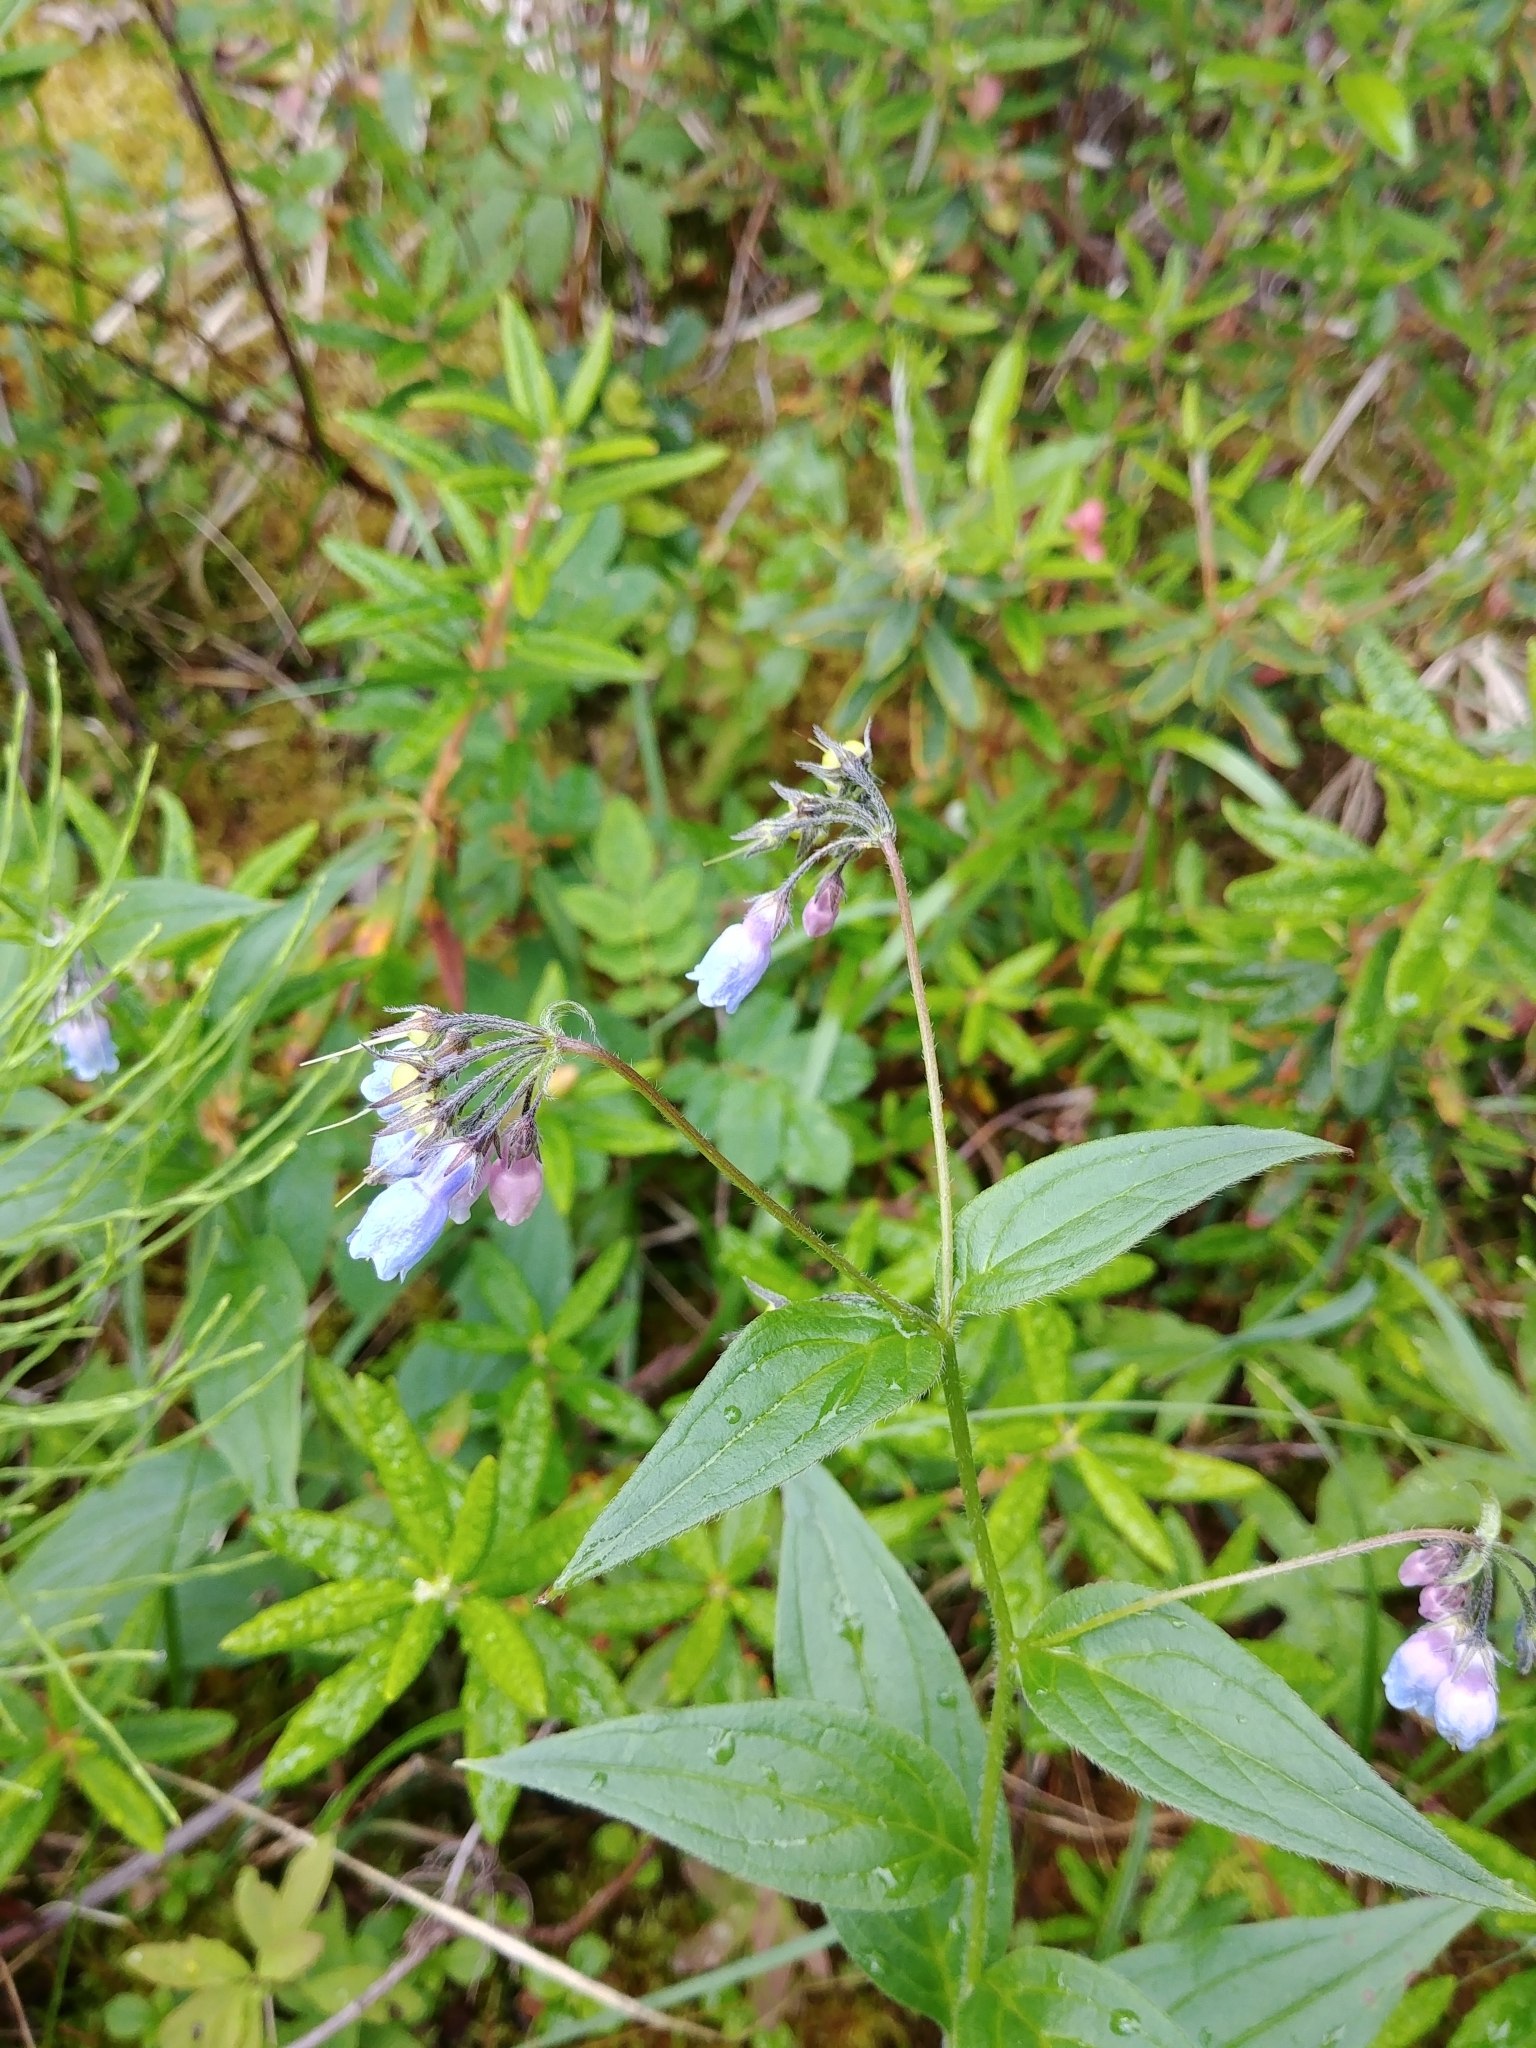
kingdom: Plantae
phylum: Tracheophyta
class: Magnoliopsida
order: Boraginales
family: Boraginaceae
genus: Mertensia
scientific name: Mertensia paniculata
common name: Panicled bluebells
